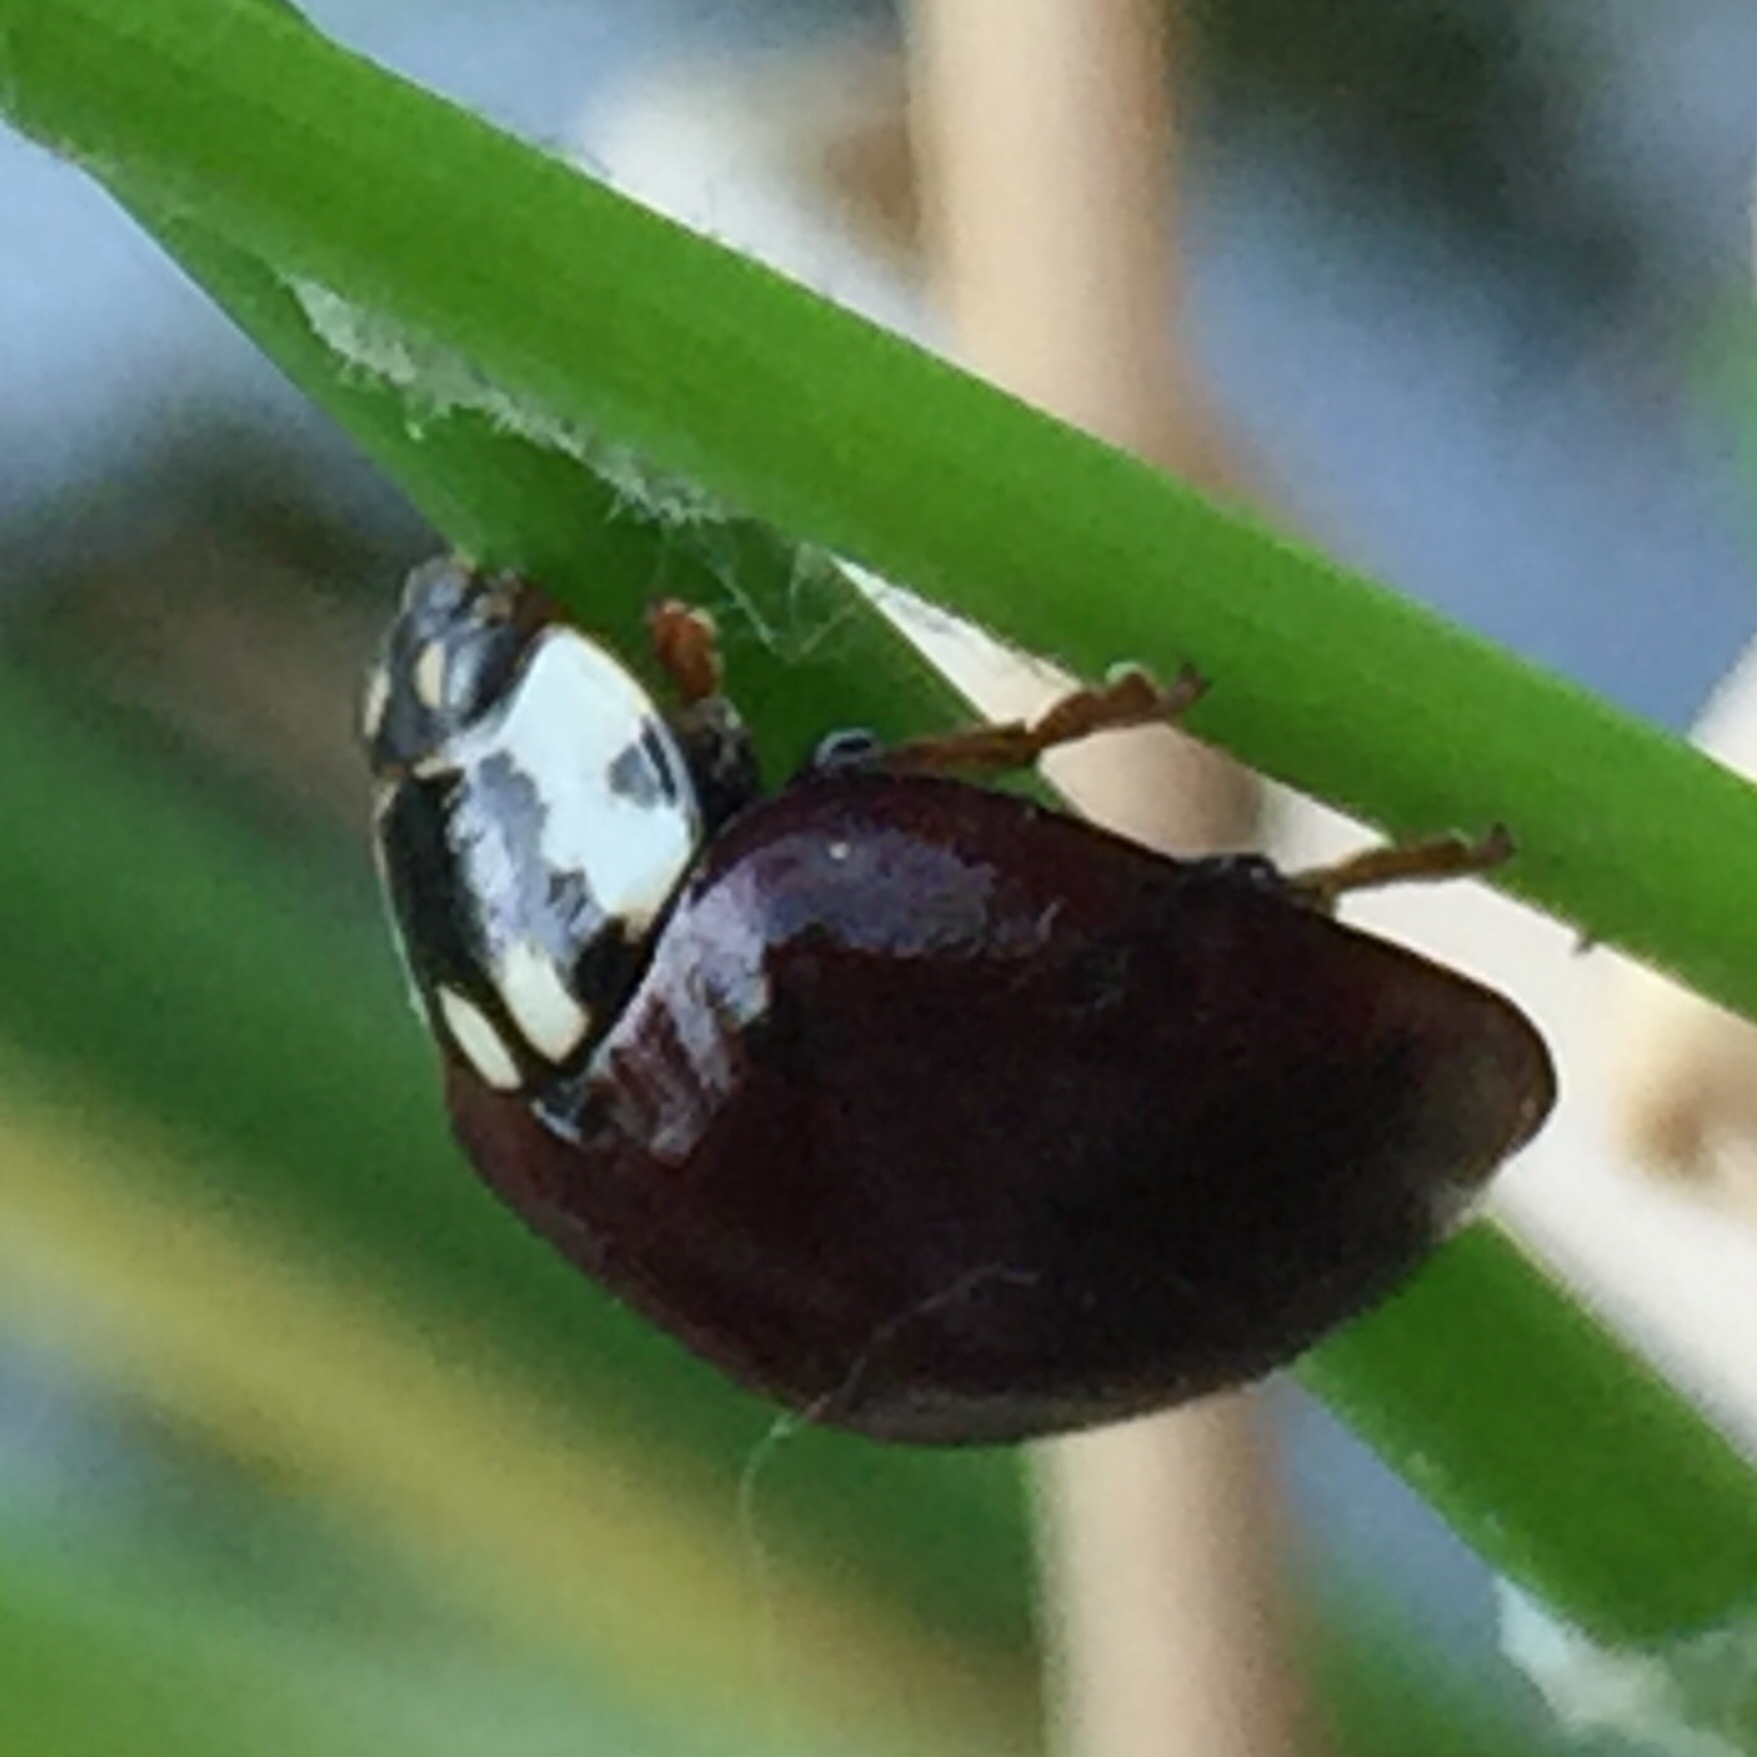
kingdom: Animalia
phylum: Arthropoda
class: Insecta
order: Coleoptera
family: Coccinellidae
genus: Anatis
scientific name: Anatis labiculata
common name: Fifteen-spotted lady beetle
